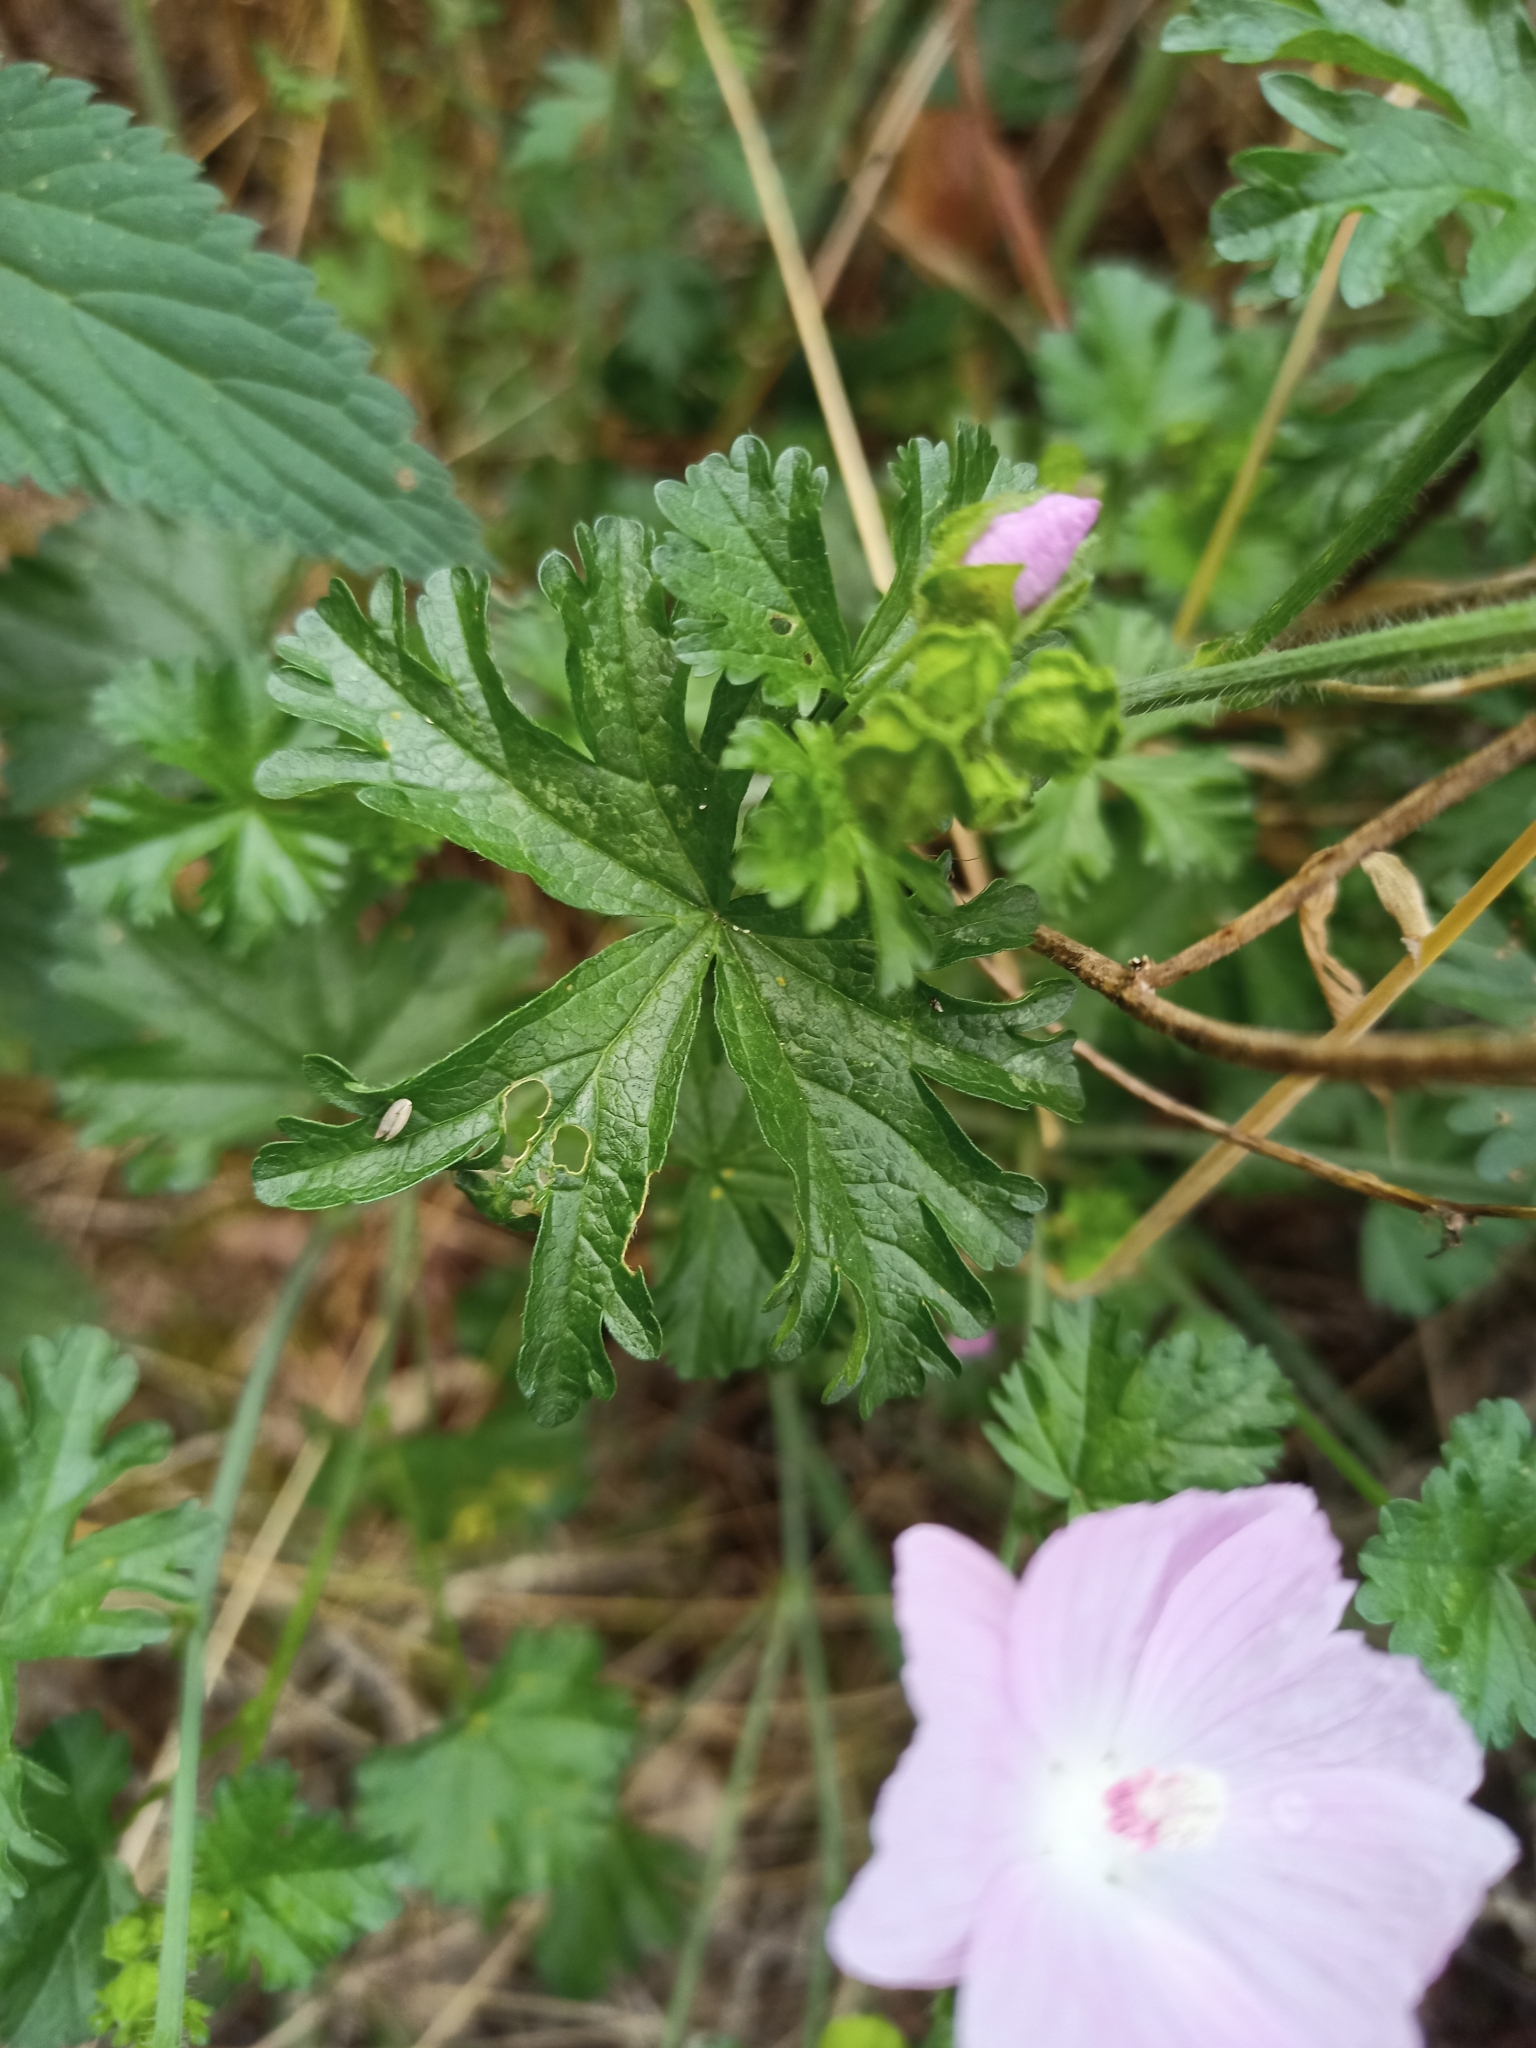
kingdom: Plantae
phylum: Tracheophyta
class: Magnoliopsida
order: Malvales
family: Malvaceae
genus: Malva
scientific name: Malva moschata
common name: Musk mallow
